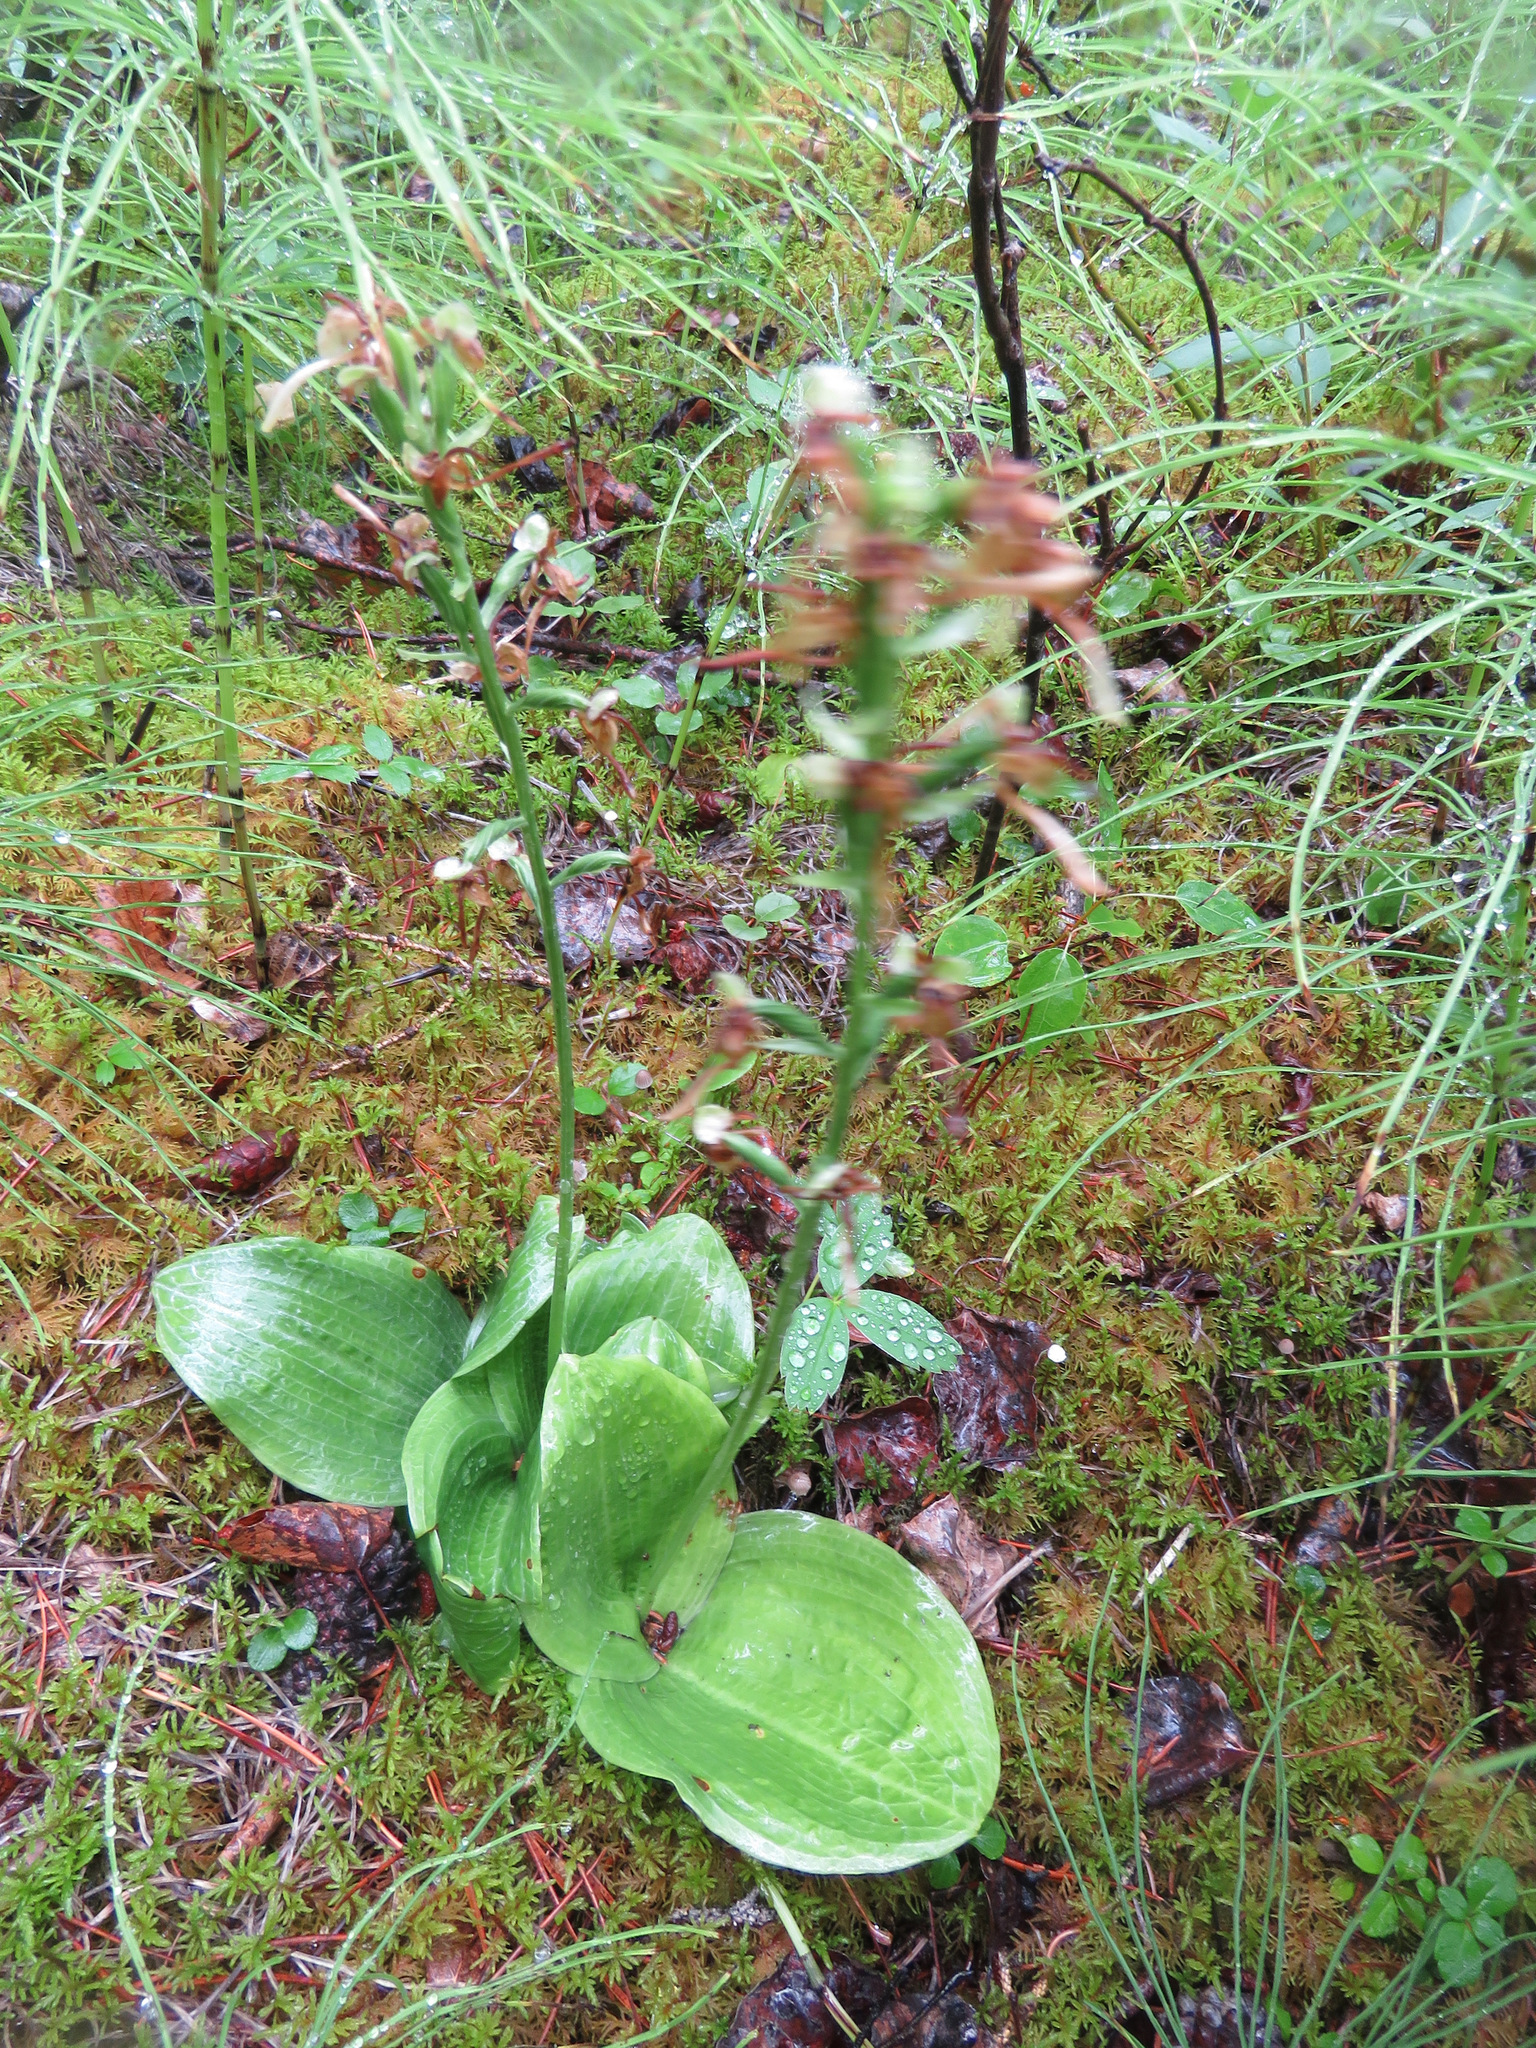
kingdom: Plantae
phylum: Tracheophyta
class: Liliopsida
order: Asparagales
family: Orchidaceae
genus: Platanthera
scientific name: Platanthera orbiculata
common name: Large round-leaved orchid
